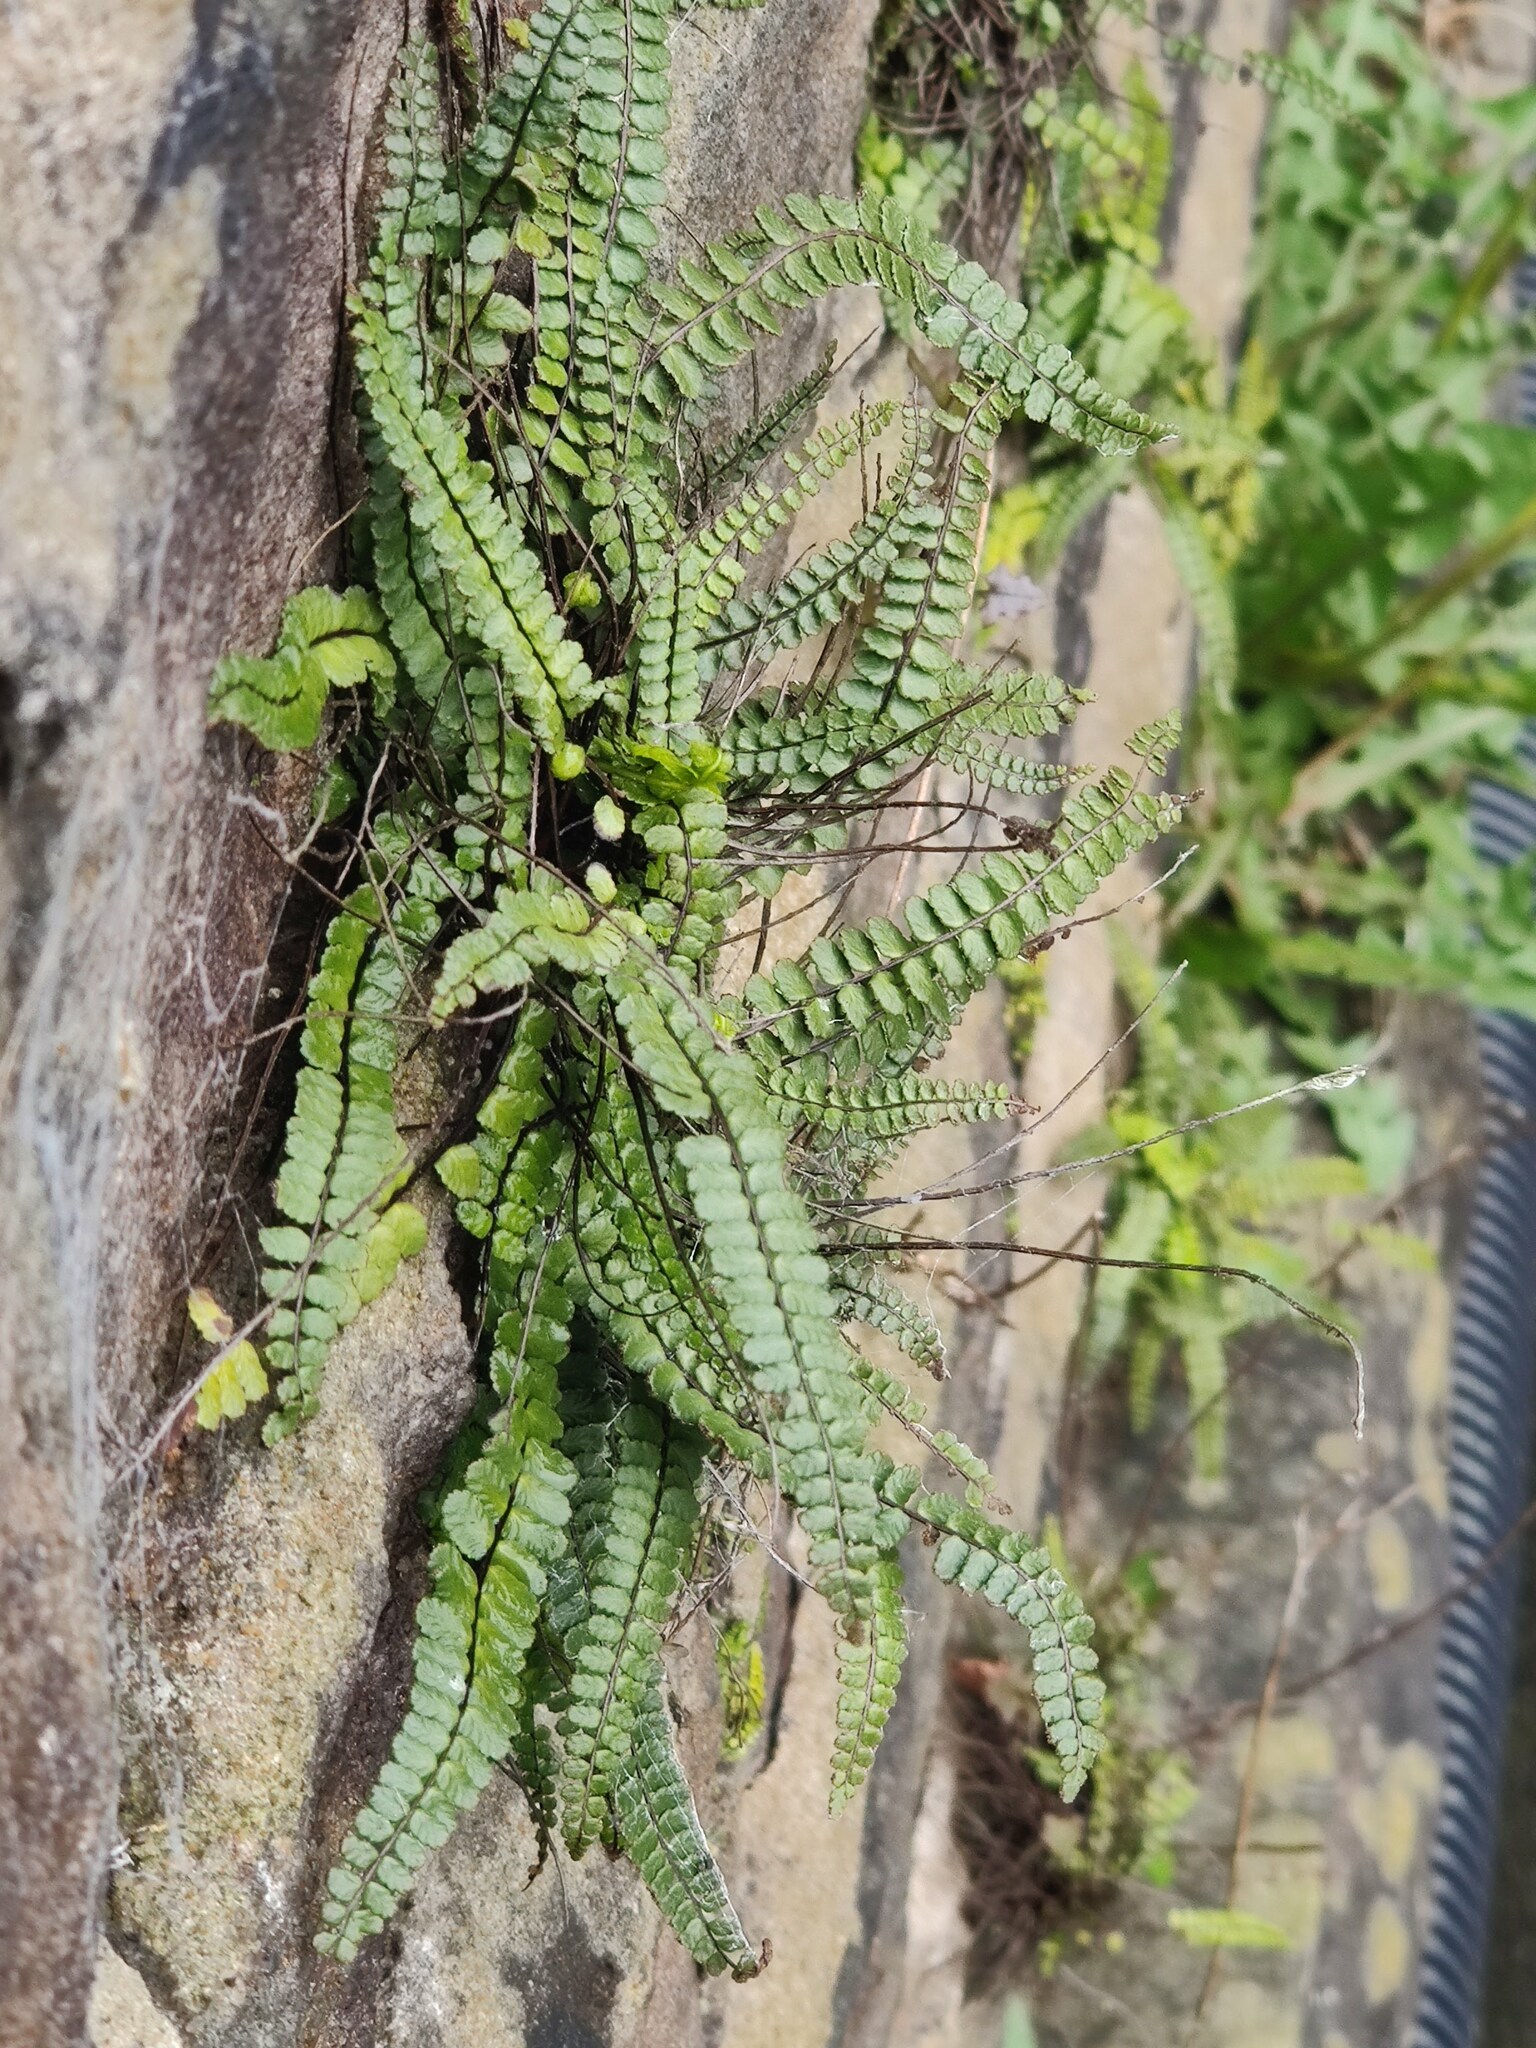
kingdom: Plantae
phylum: Tracheophyta
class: Polypodiopsida
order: Polypodiales
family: Aspleniaceae
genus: Asplenium
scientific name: Asplenium trichomanes
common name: Maidenhair spleenwort
